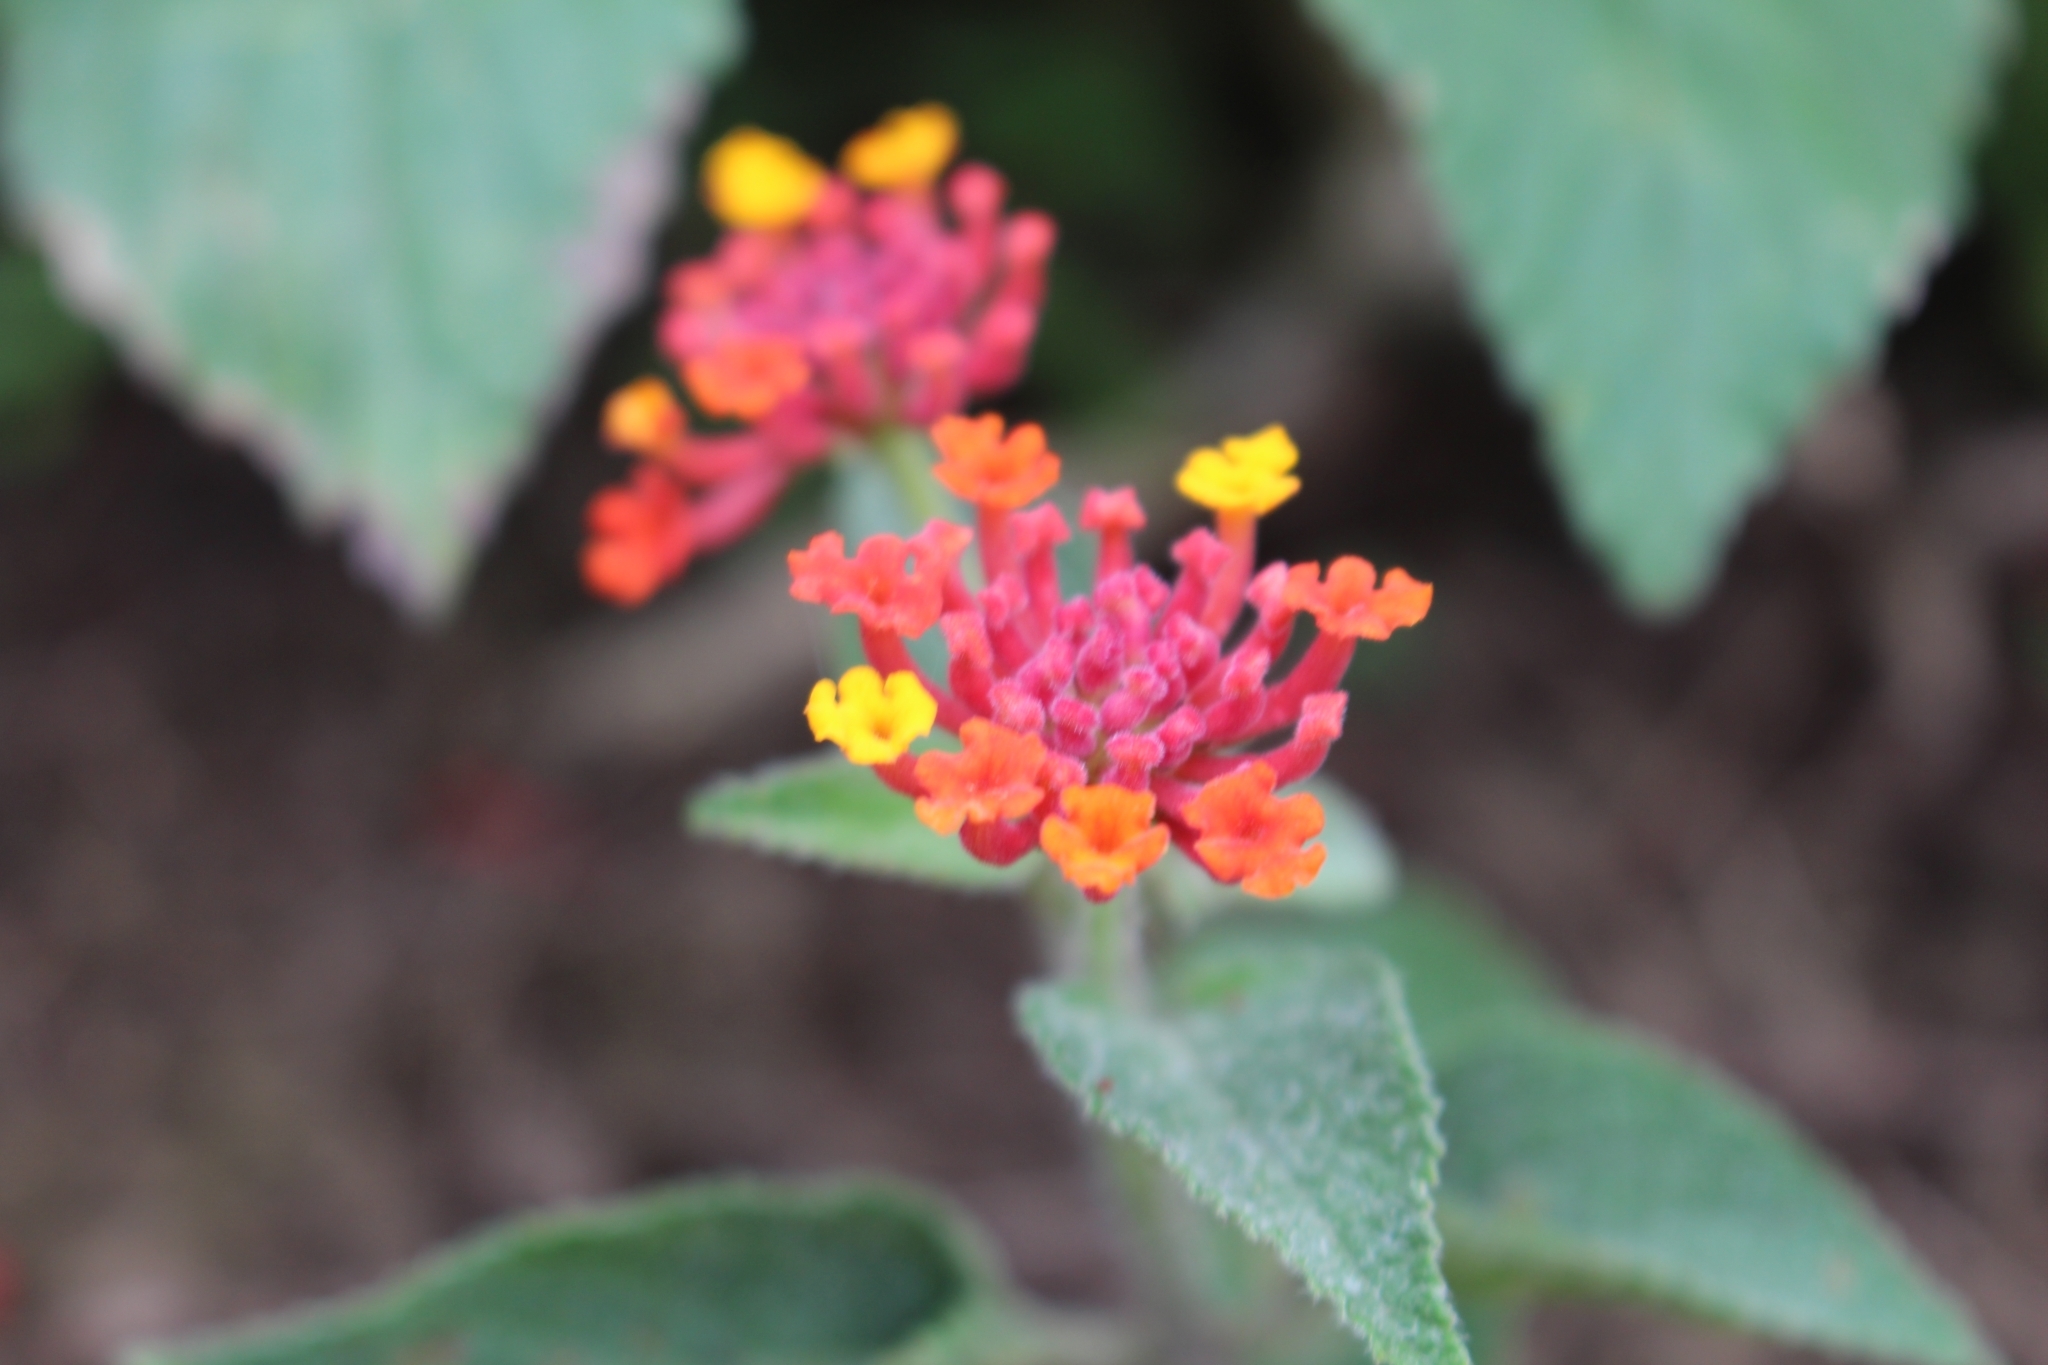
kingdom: Plantae
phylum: Tracheophyta
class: Magnoliopsida
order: Lamiales
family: Verbenaceae
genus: Lantana
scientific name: Lantana camara
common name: Lantana
